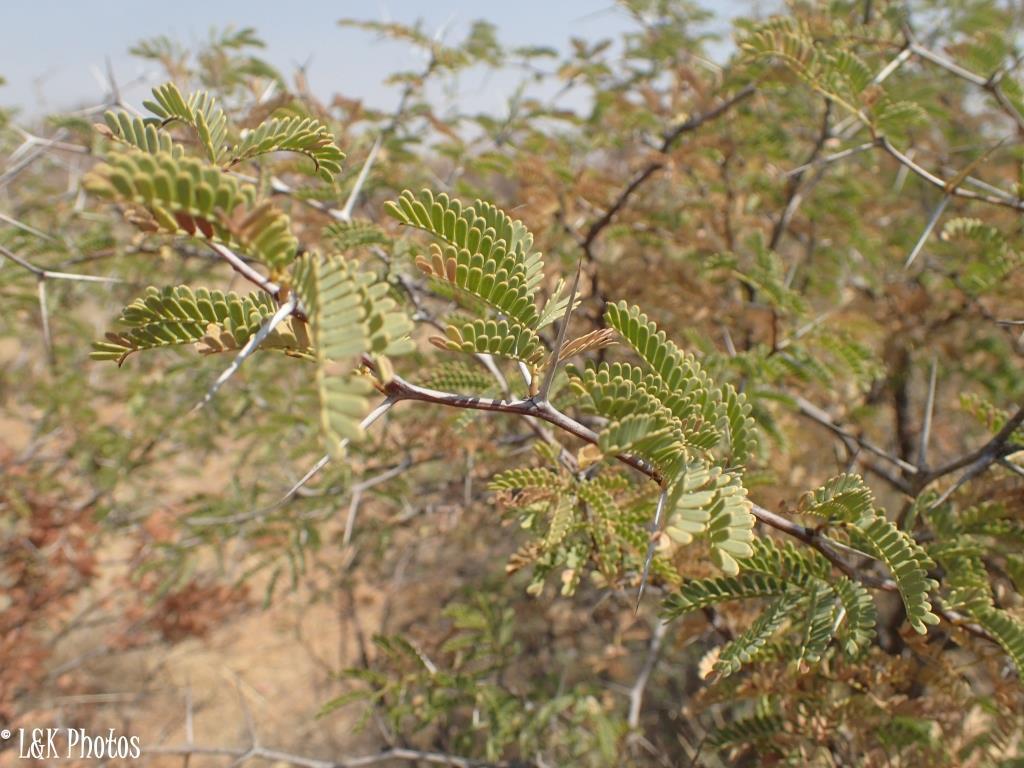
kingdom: Plantae
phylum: Tracheophyta
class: Magnoliopsida
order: Fabales
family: Fabaceae
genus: Vachellia
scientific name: Vachellia erioloba
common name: Camel thorn
